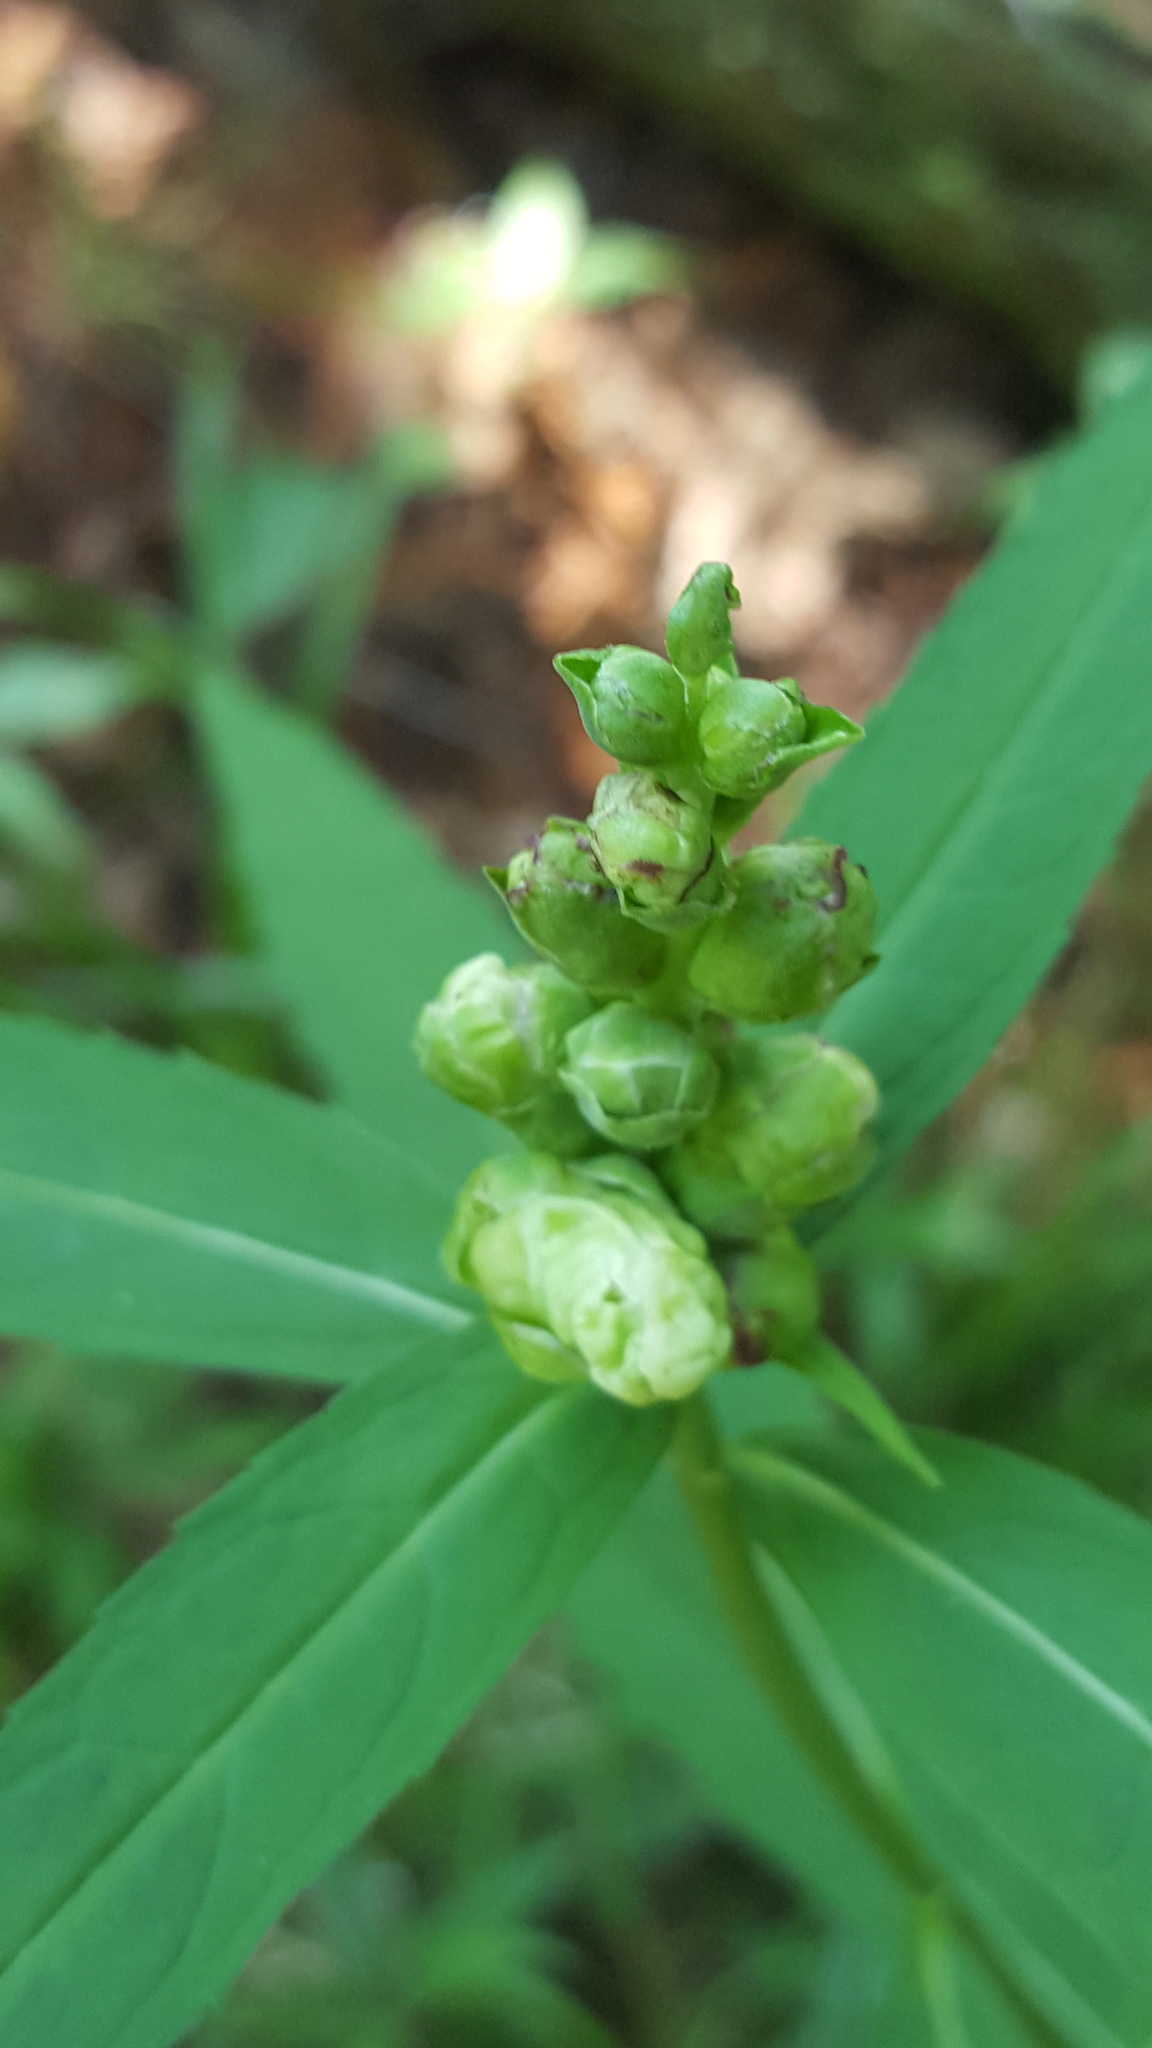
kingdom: Plantae
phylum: Tracheophyta
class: Magnoliopsida
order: Lamiales
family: Plantaginaceae
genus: Chelone
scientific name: Chelone glabra
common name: Snakehead
